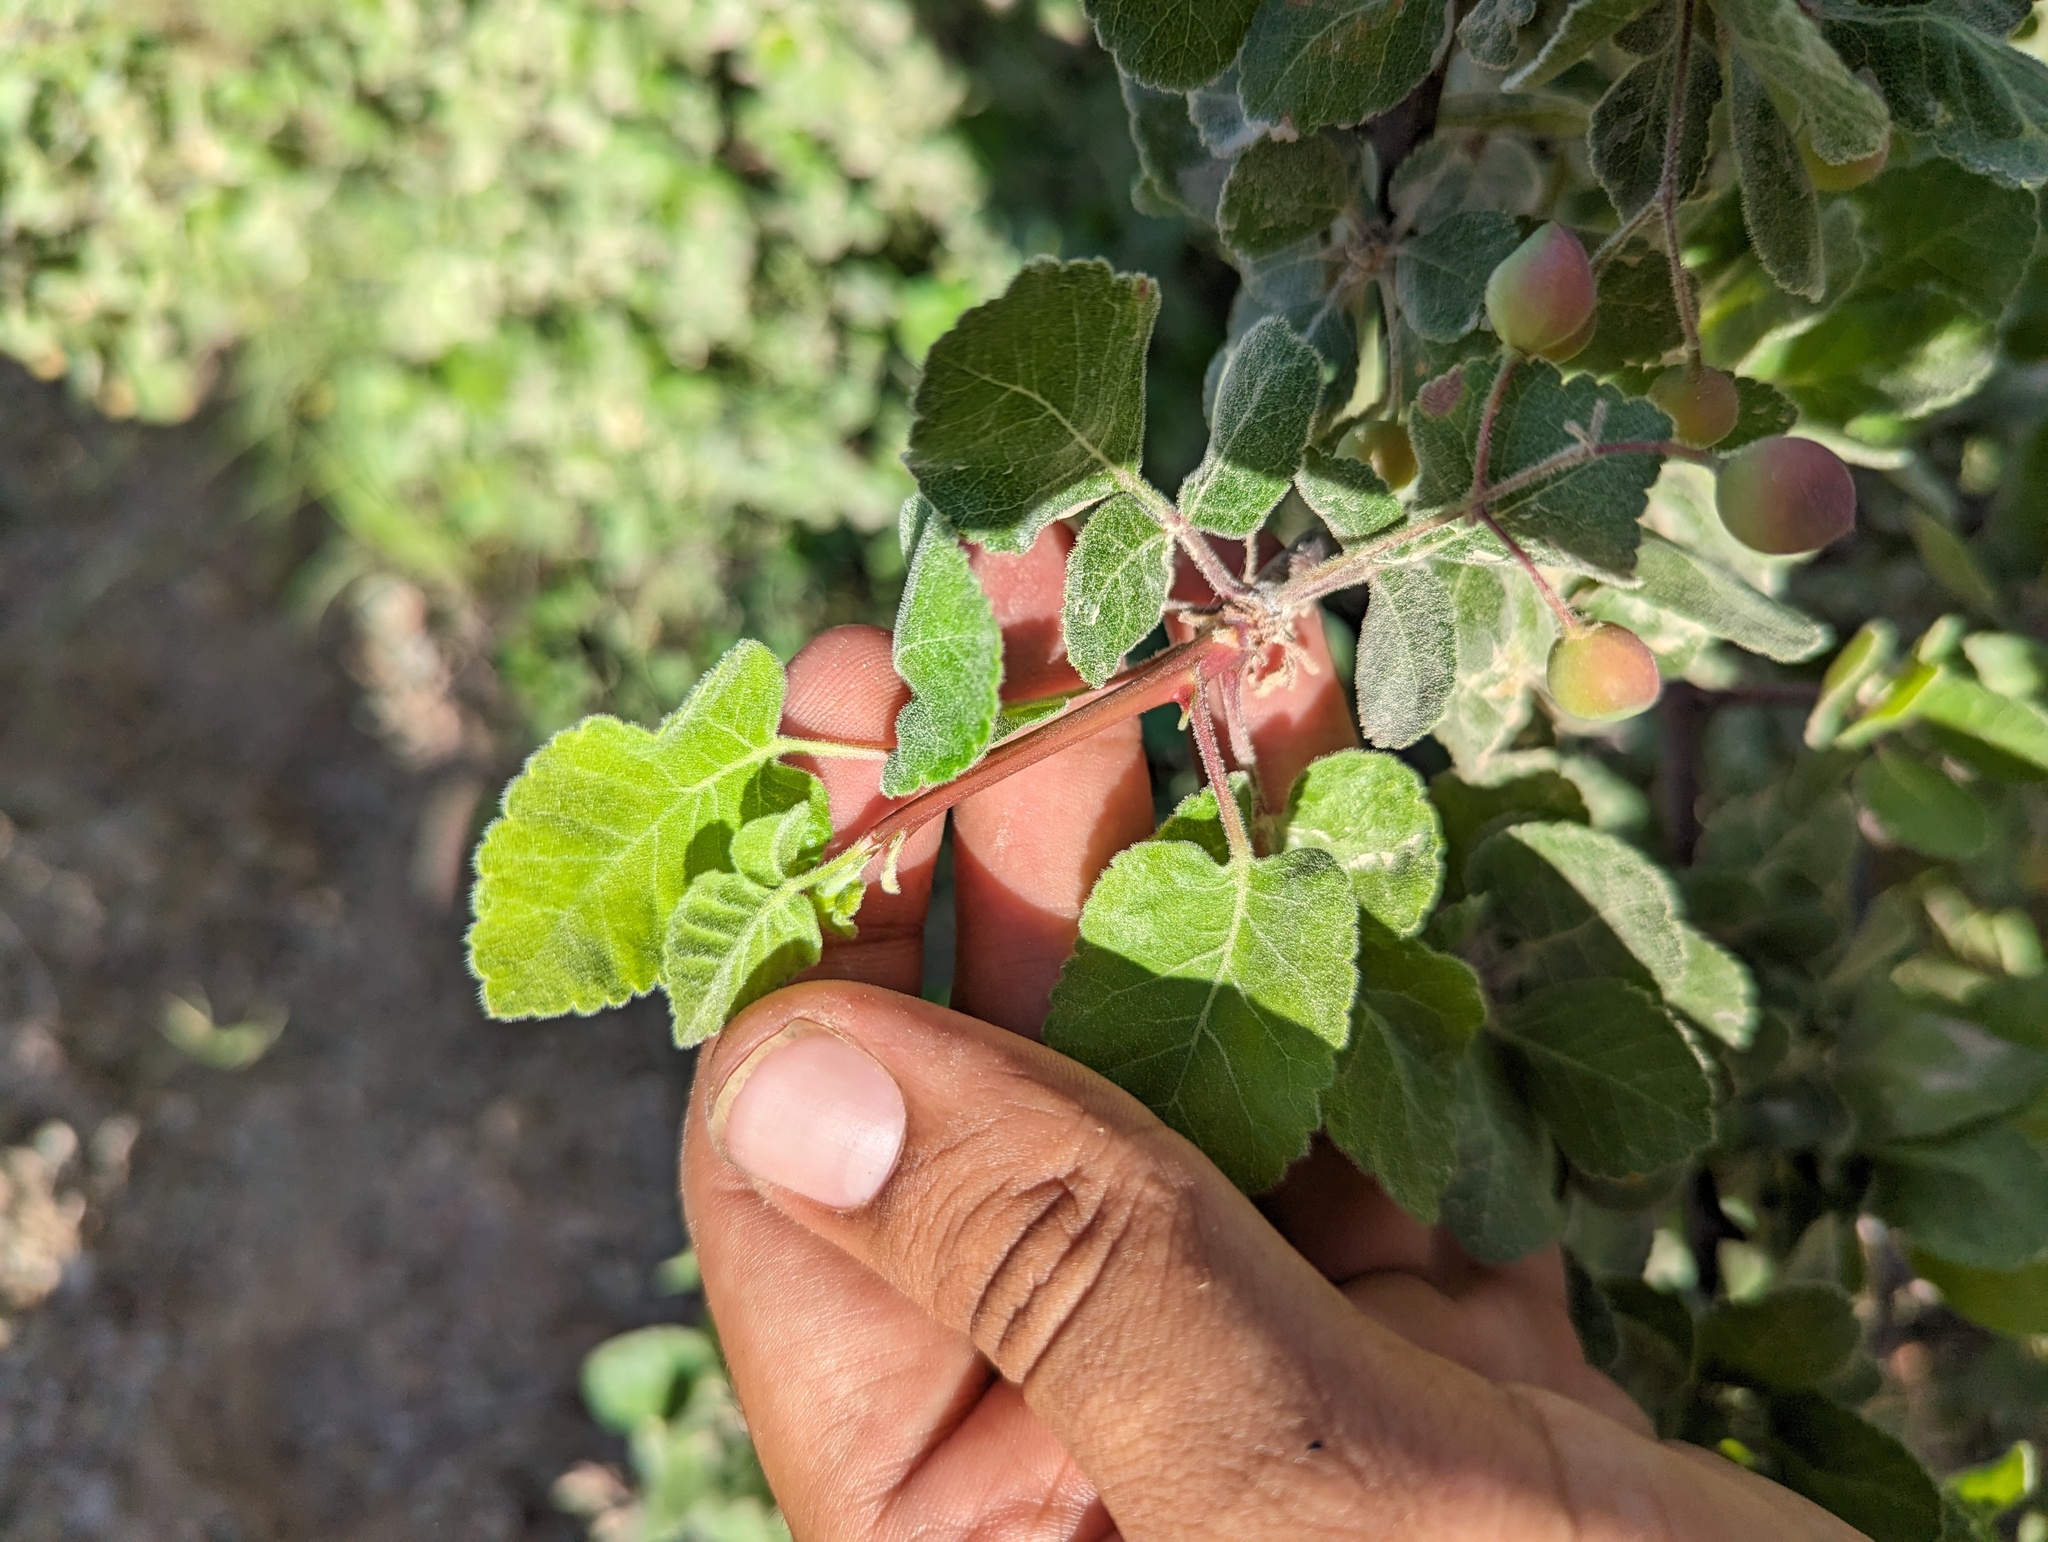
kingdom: Plantae
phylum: Tracheophyta
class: Magnoliopsida
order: Sapindales
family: Burseraceae
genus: Bursera
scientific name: Bursera epinnata
